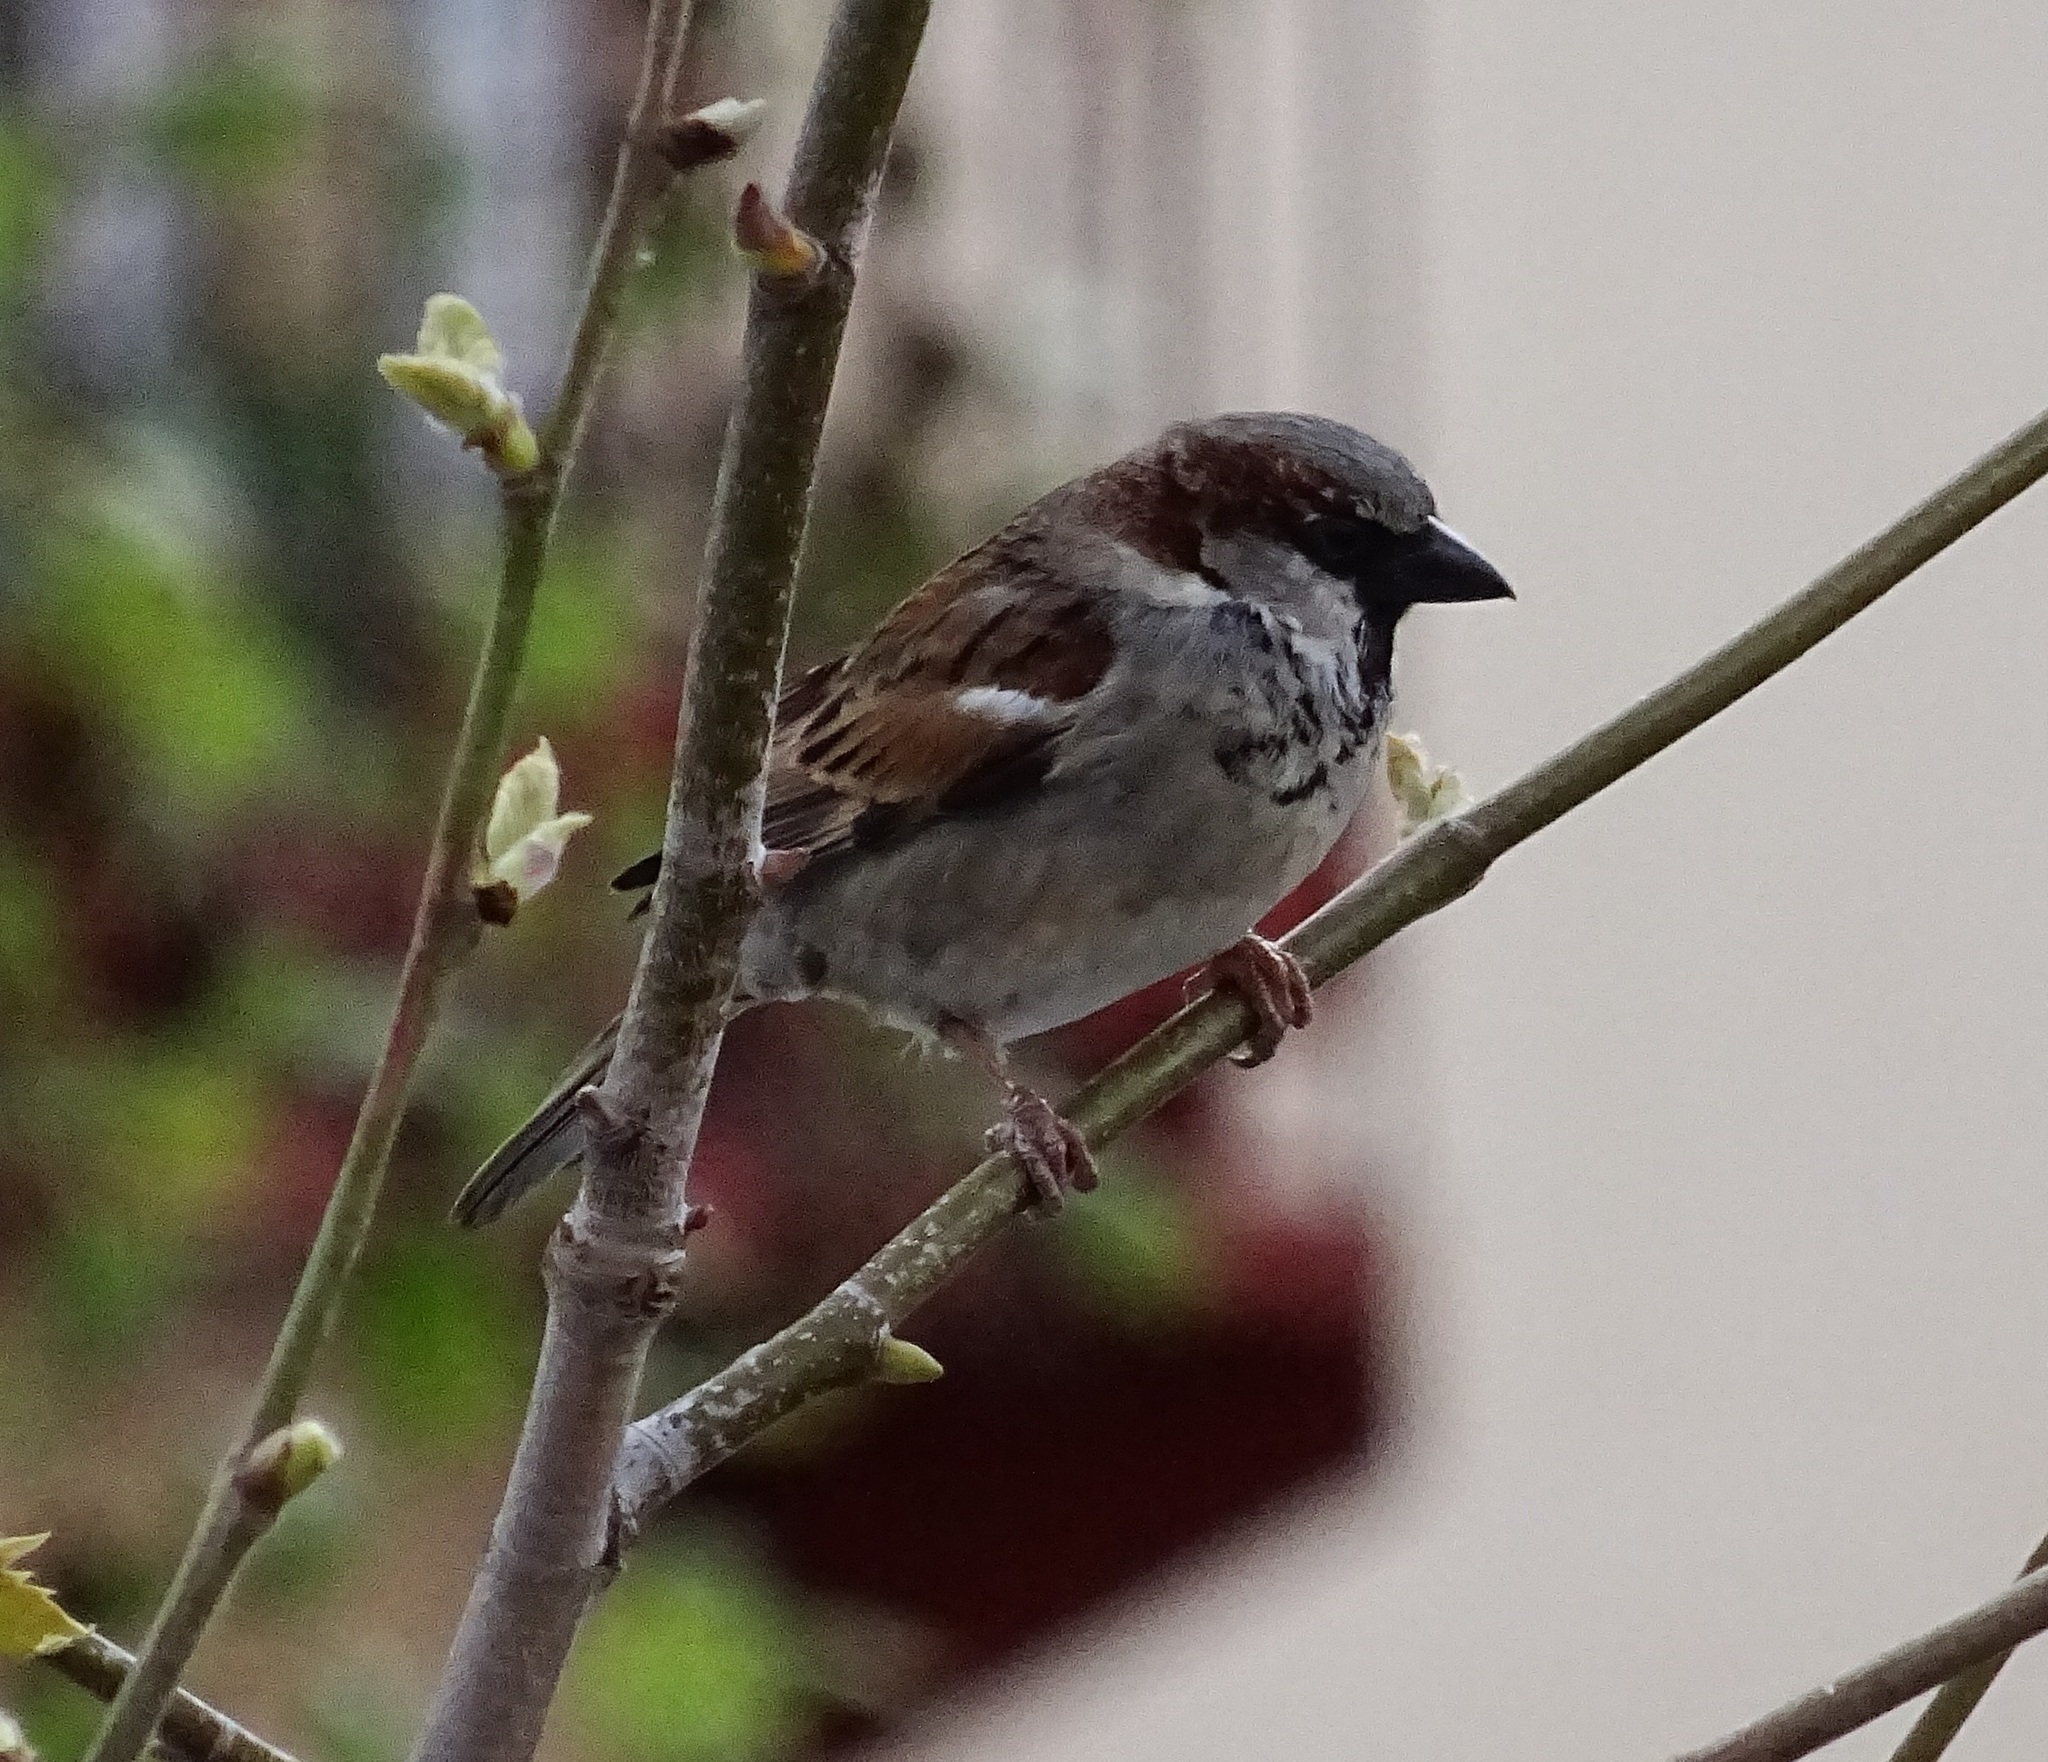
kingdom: Animalia
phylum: Chordata
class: Aves
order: Passeriformes
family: Passeridae
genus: Passer
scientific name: Passer domesticus
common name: House sparrow
